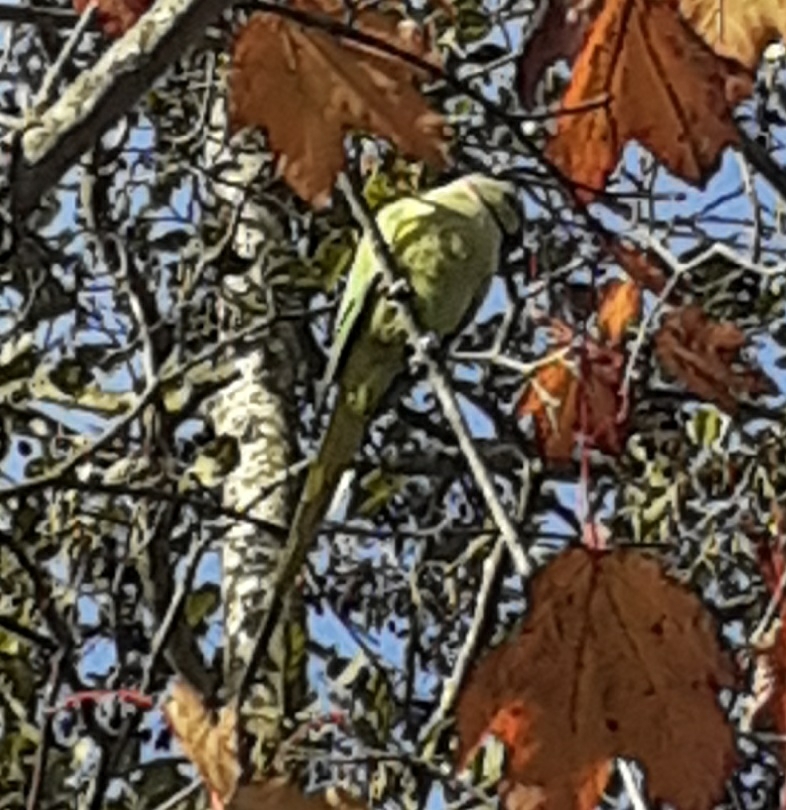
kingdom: Animalia
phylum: Chordata
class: Aves
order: Psittaciformes
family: Psittacidae
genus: Psittacula
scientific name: Psittacula krameri
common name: Rose-ringed parakeet
